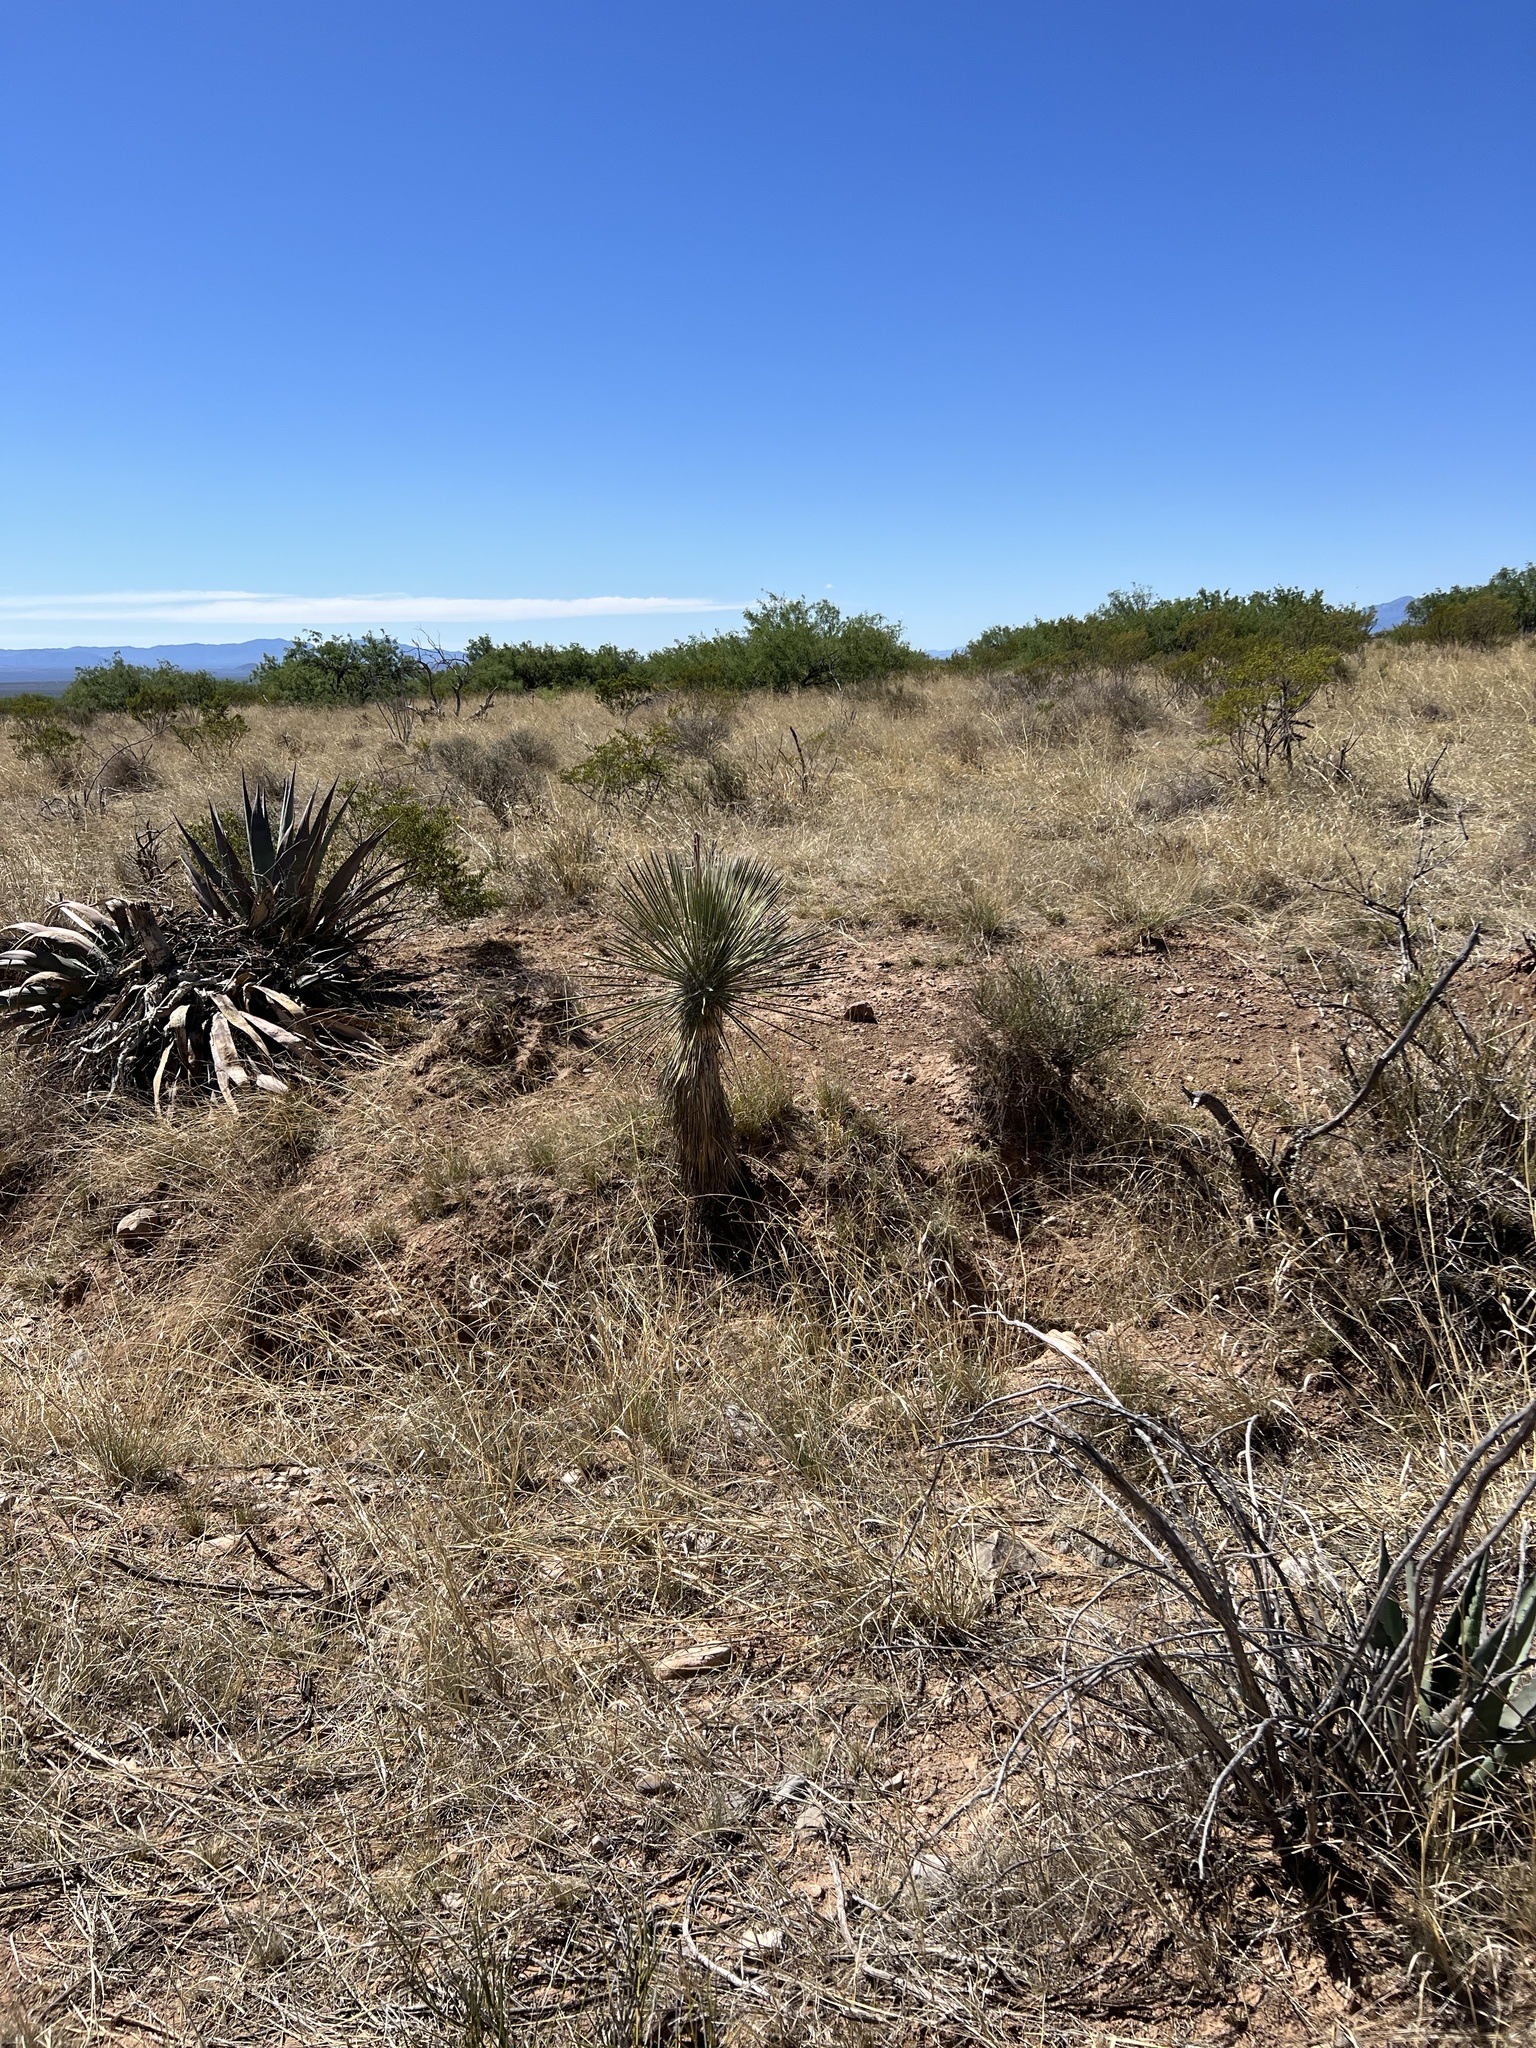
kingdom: Plantae
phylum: Tracheophyta
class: Liliopsida
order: Asparagales
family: Asparagaceae
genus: Yucca
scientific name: Yucca elata
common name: Palmella
